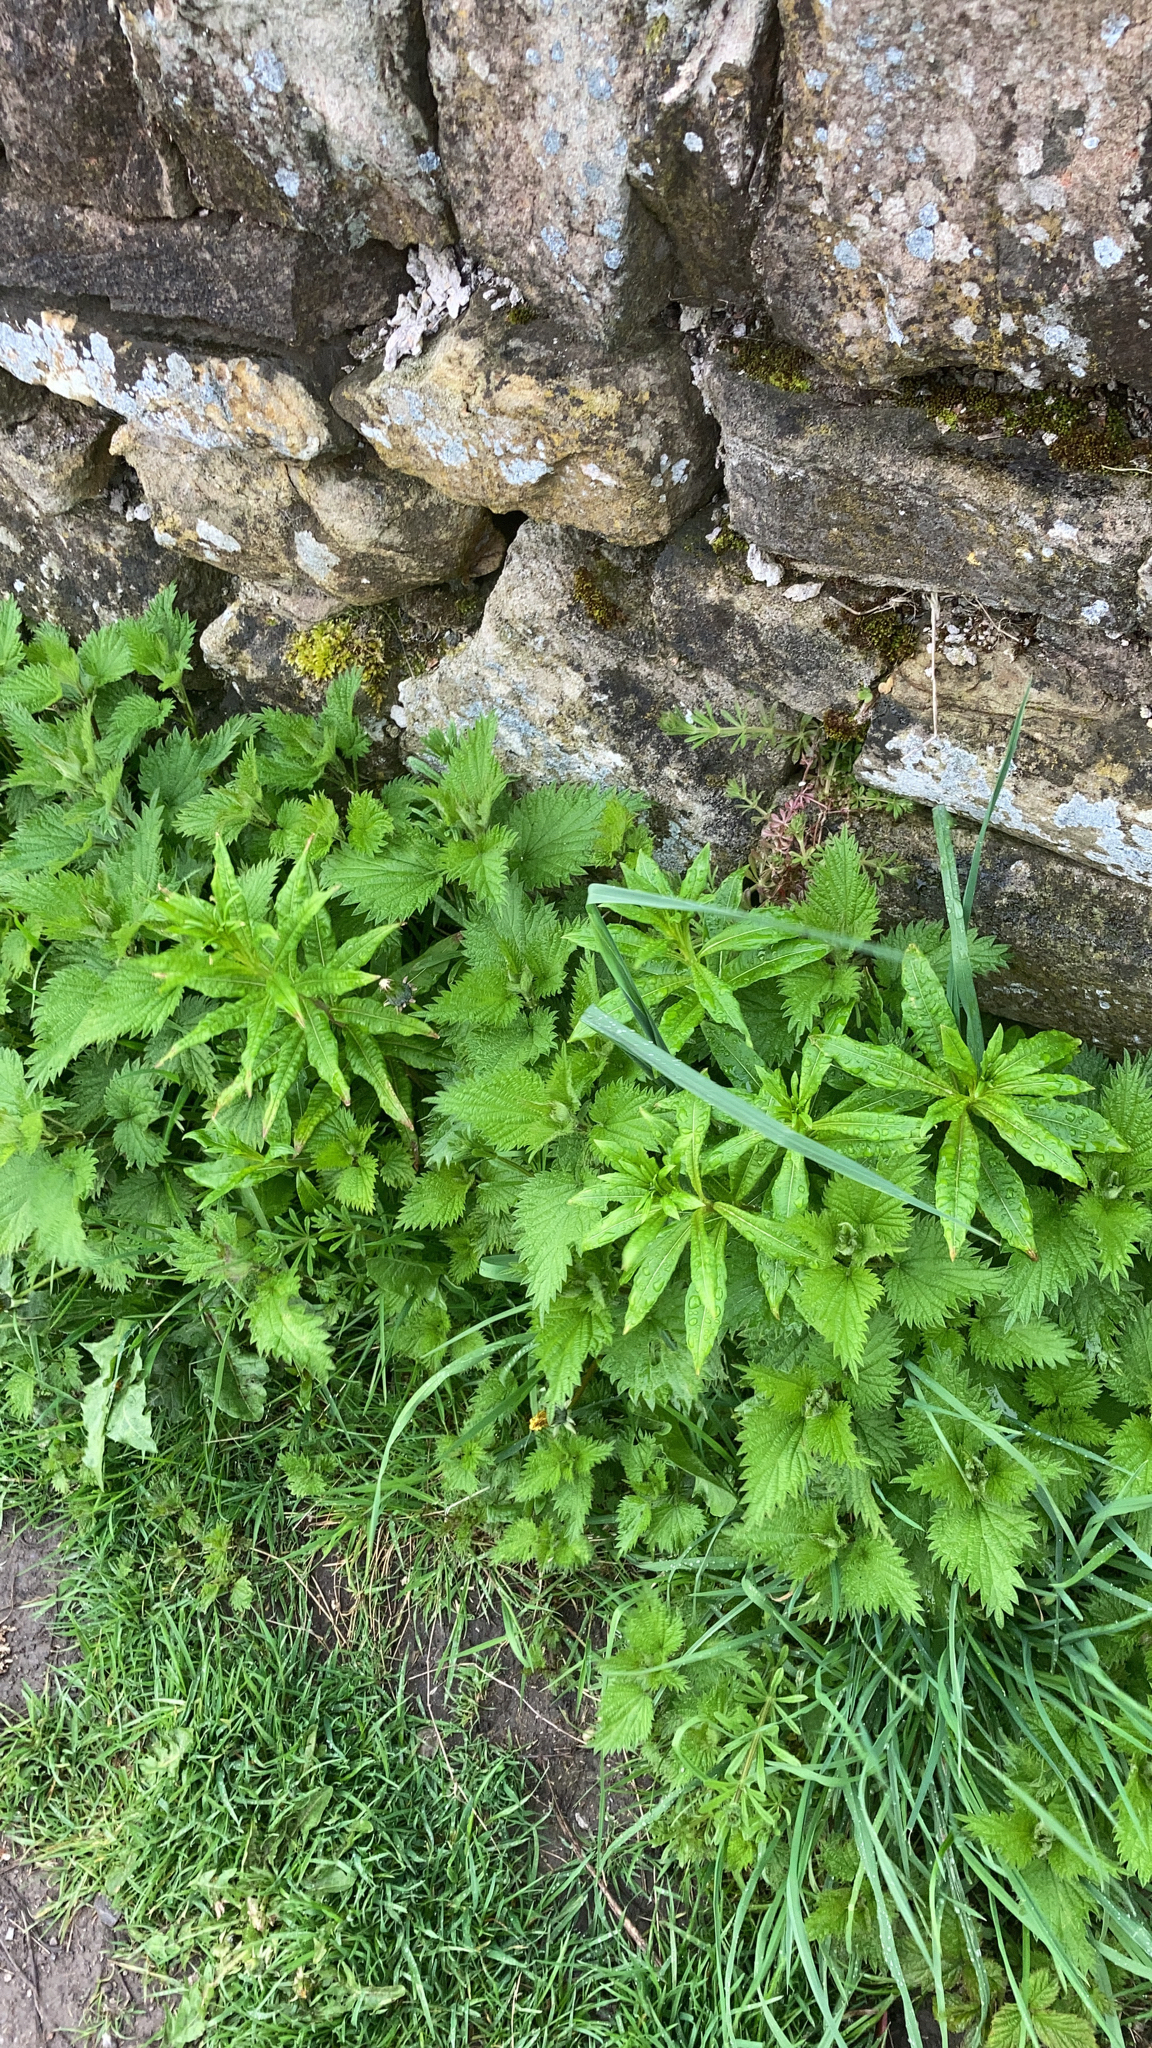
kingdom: Plantae
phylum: Tracheophyta
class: Magnoliopsida
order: Rosales
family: Urticaceae
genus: Urtica
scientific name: Urtica dioica
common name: Common nettle
